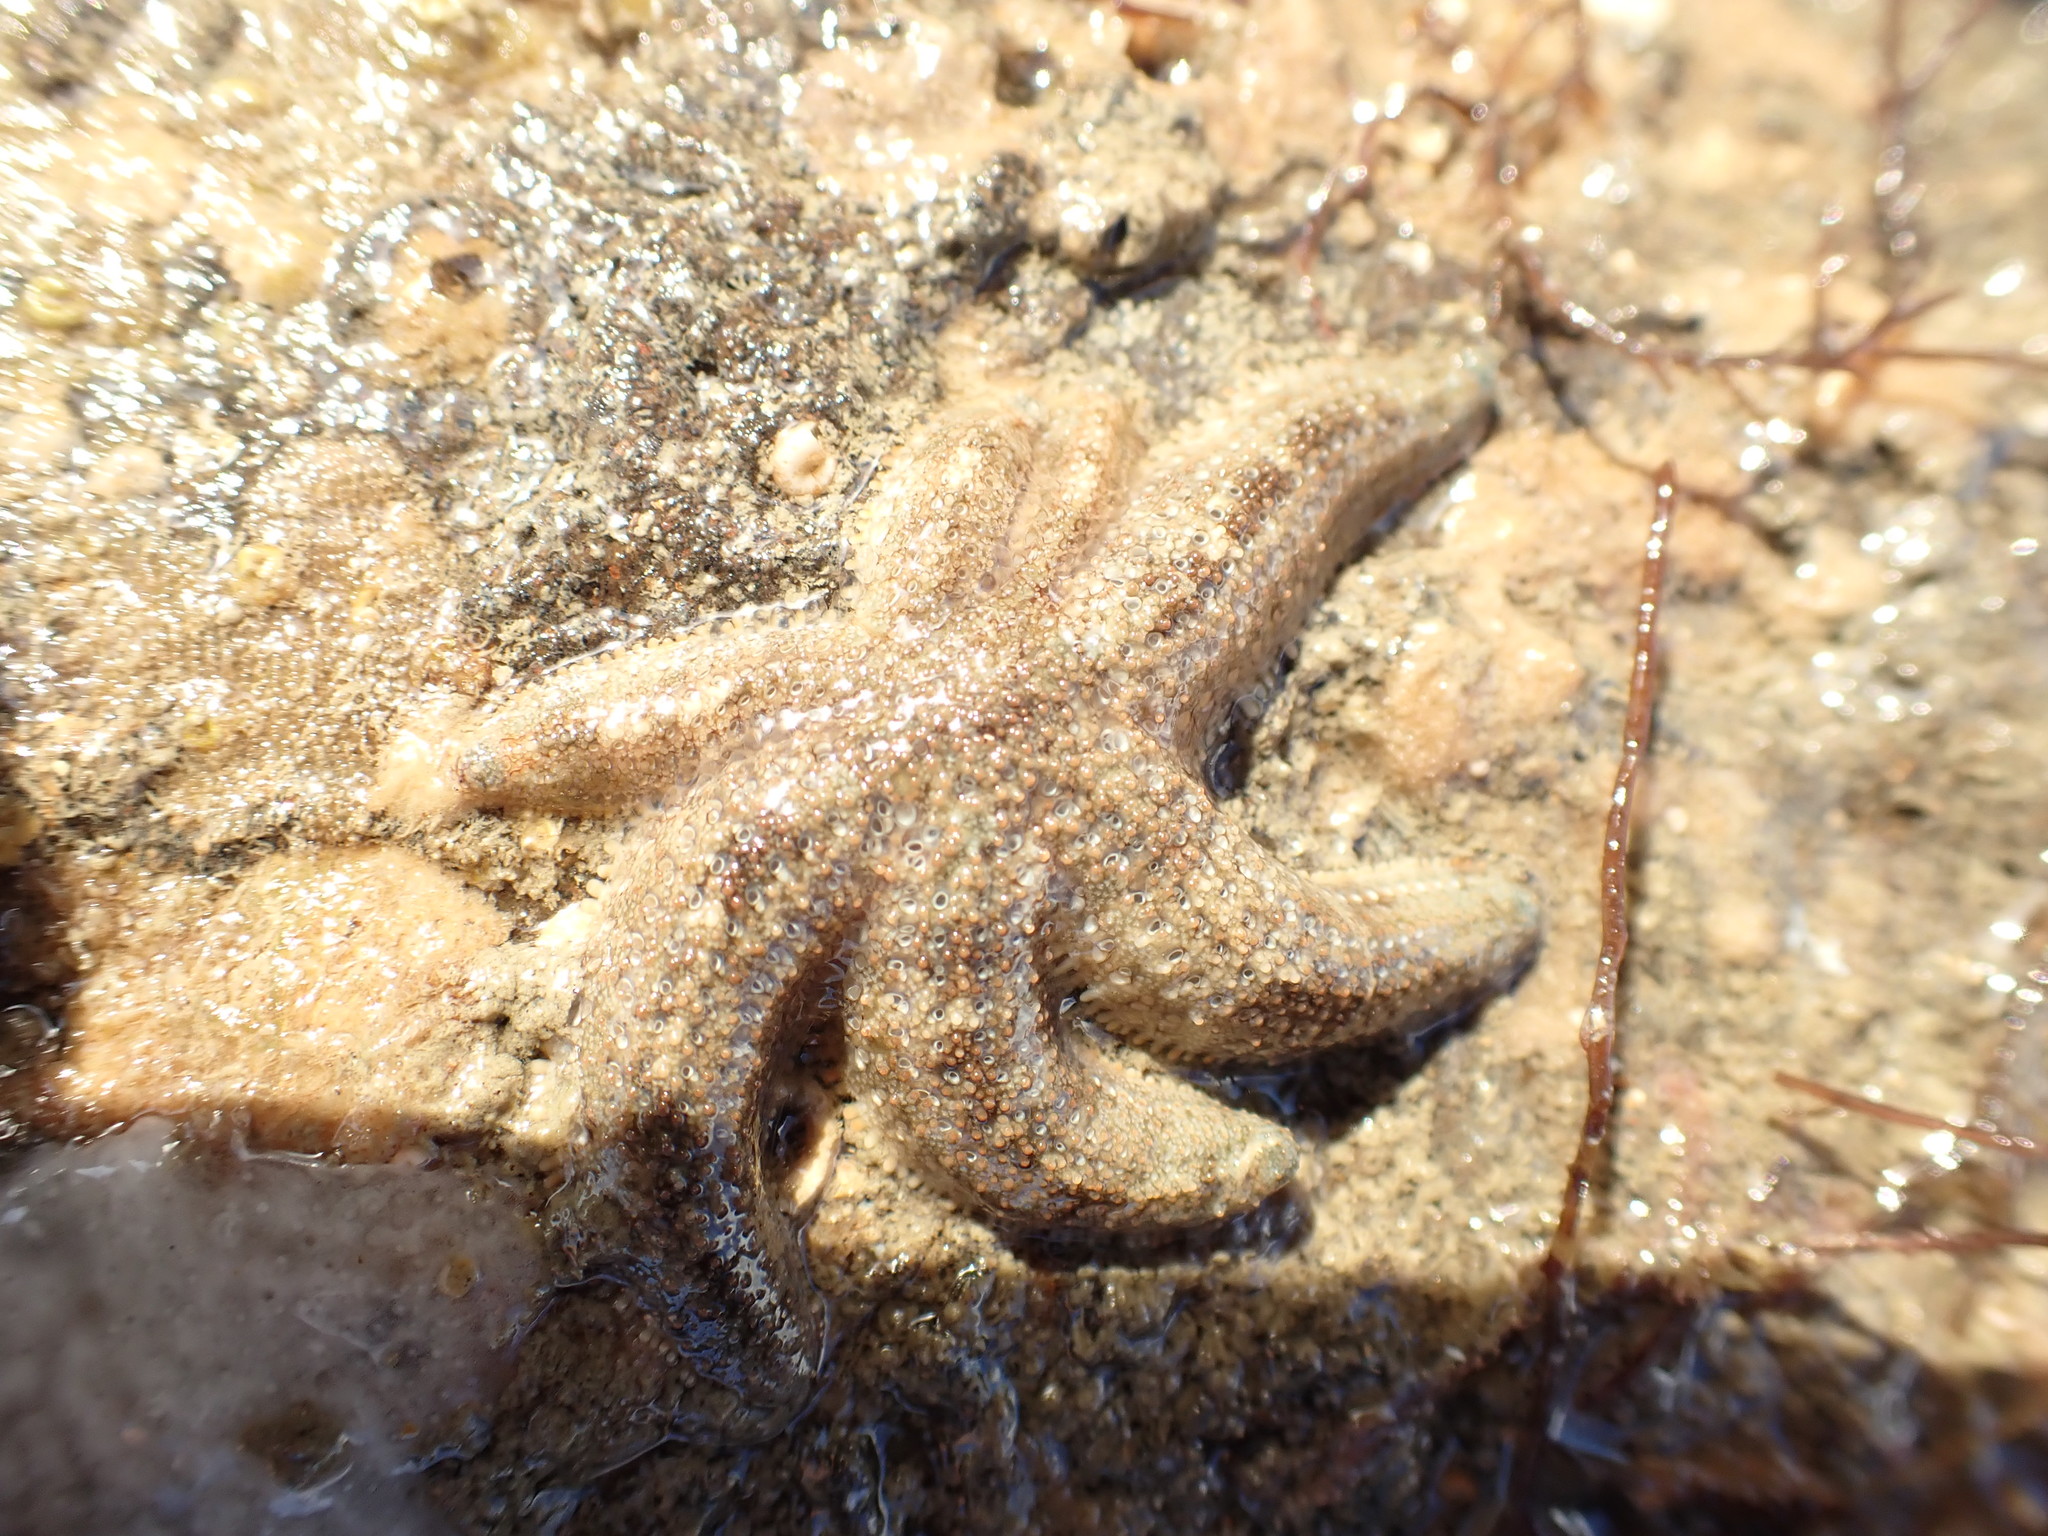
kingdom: Animalia
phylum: Echinodermata
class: Asteroidea
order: Forcipulatida
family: Stichasteridae
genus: Allostichaster
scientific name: Allostichaster polyplax
